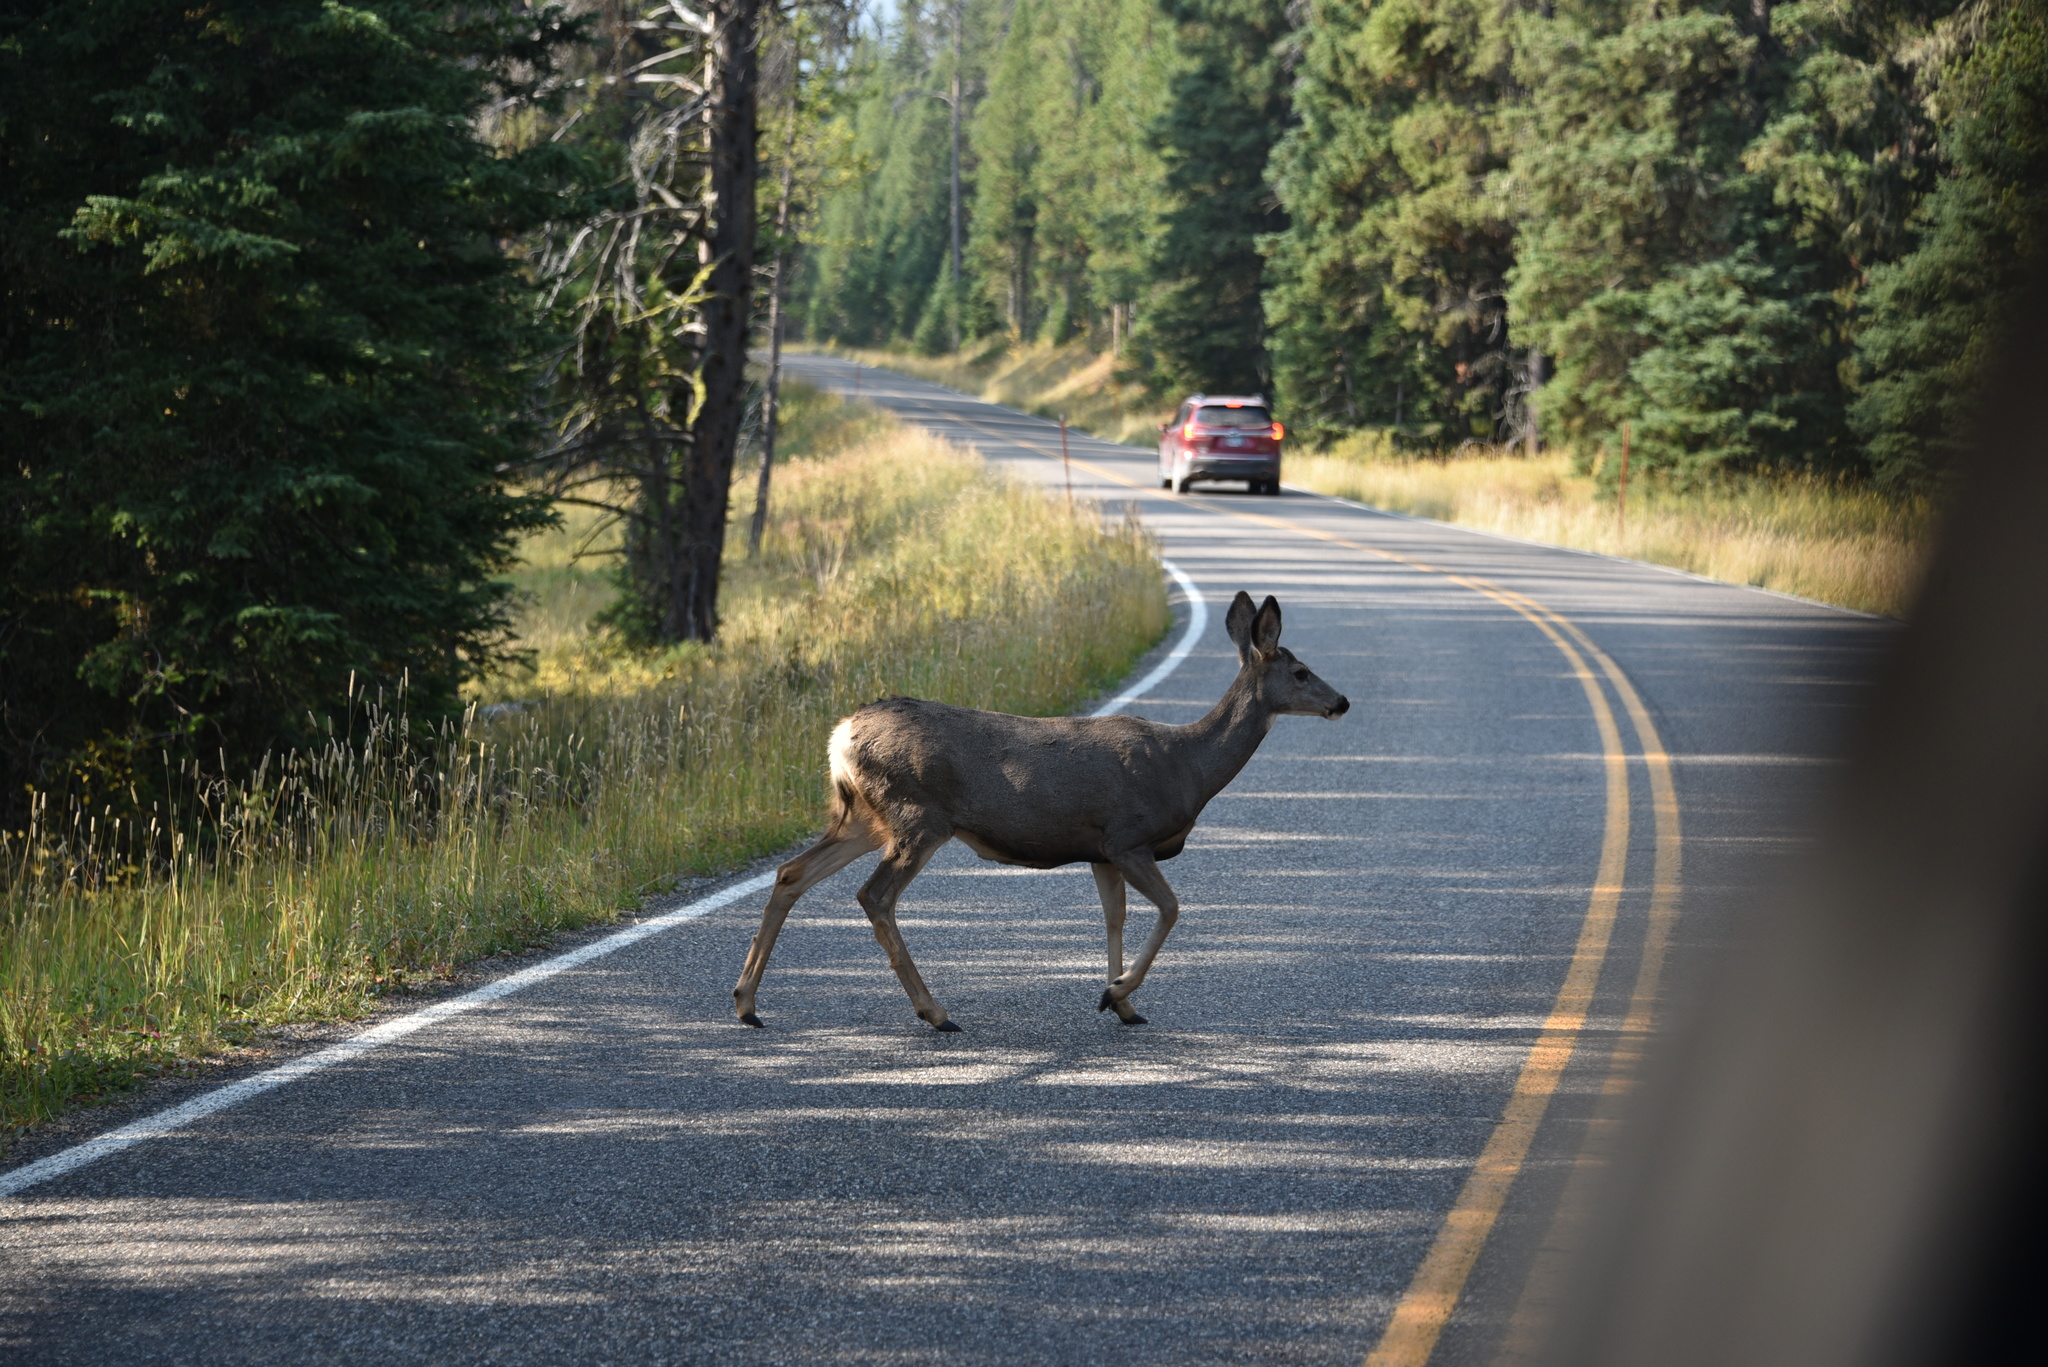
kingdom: Animalia
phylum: Chordata
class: Mammalia
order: Artiodactyla
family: Cervidae
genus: Odocoileus
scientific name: Odocoileus hemionus
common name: Mule deer
